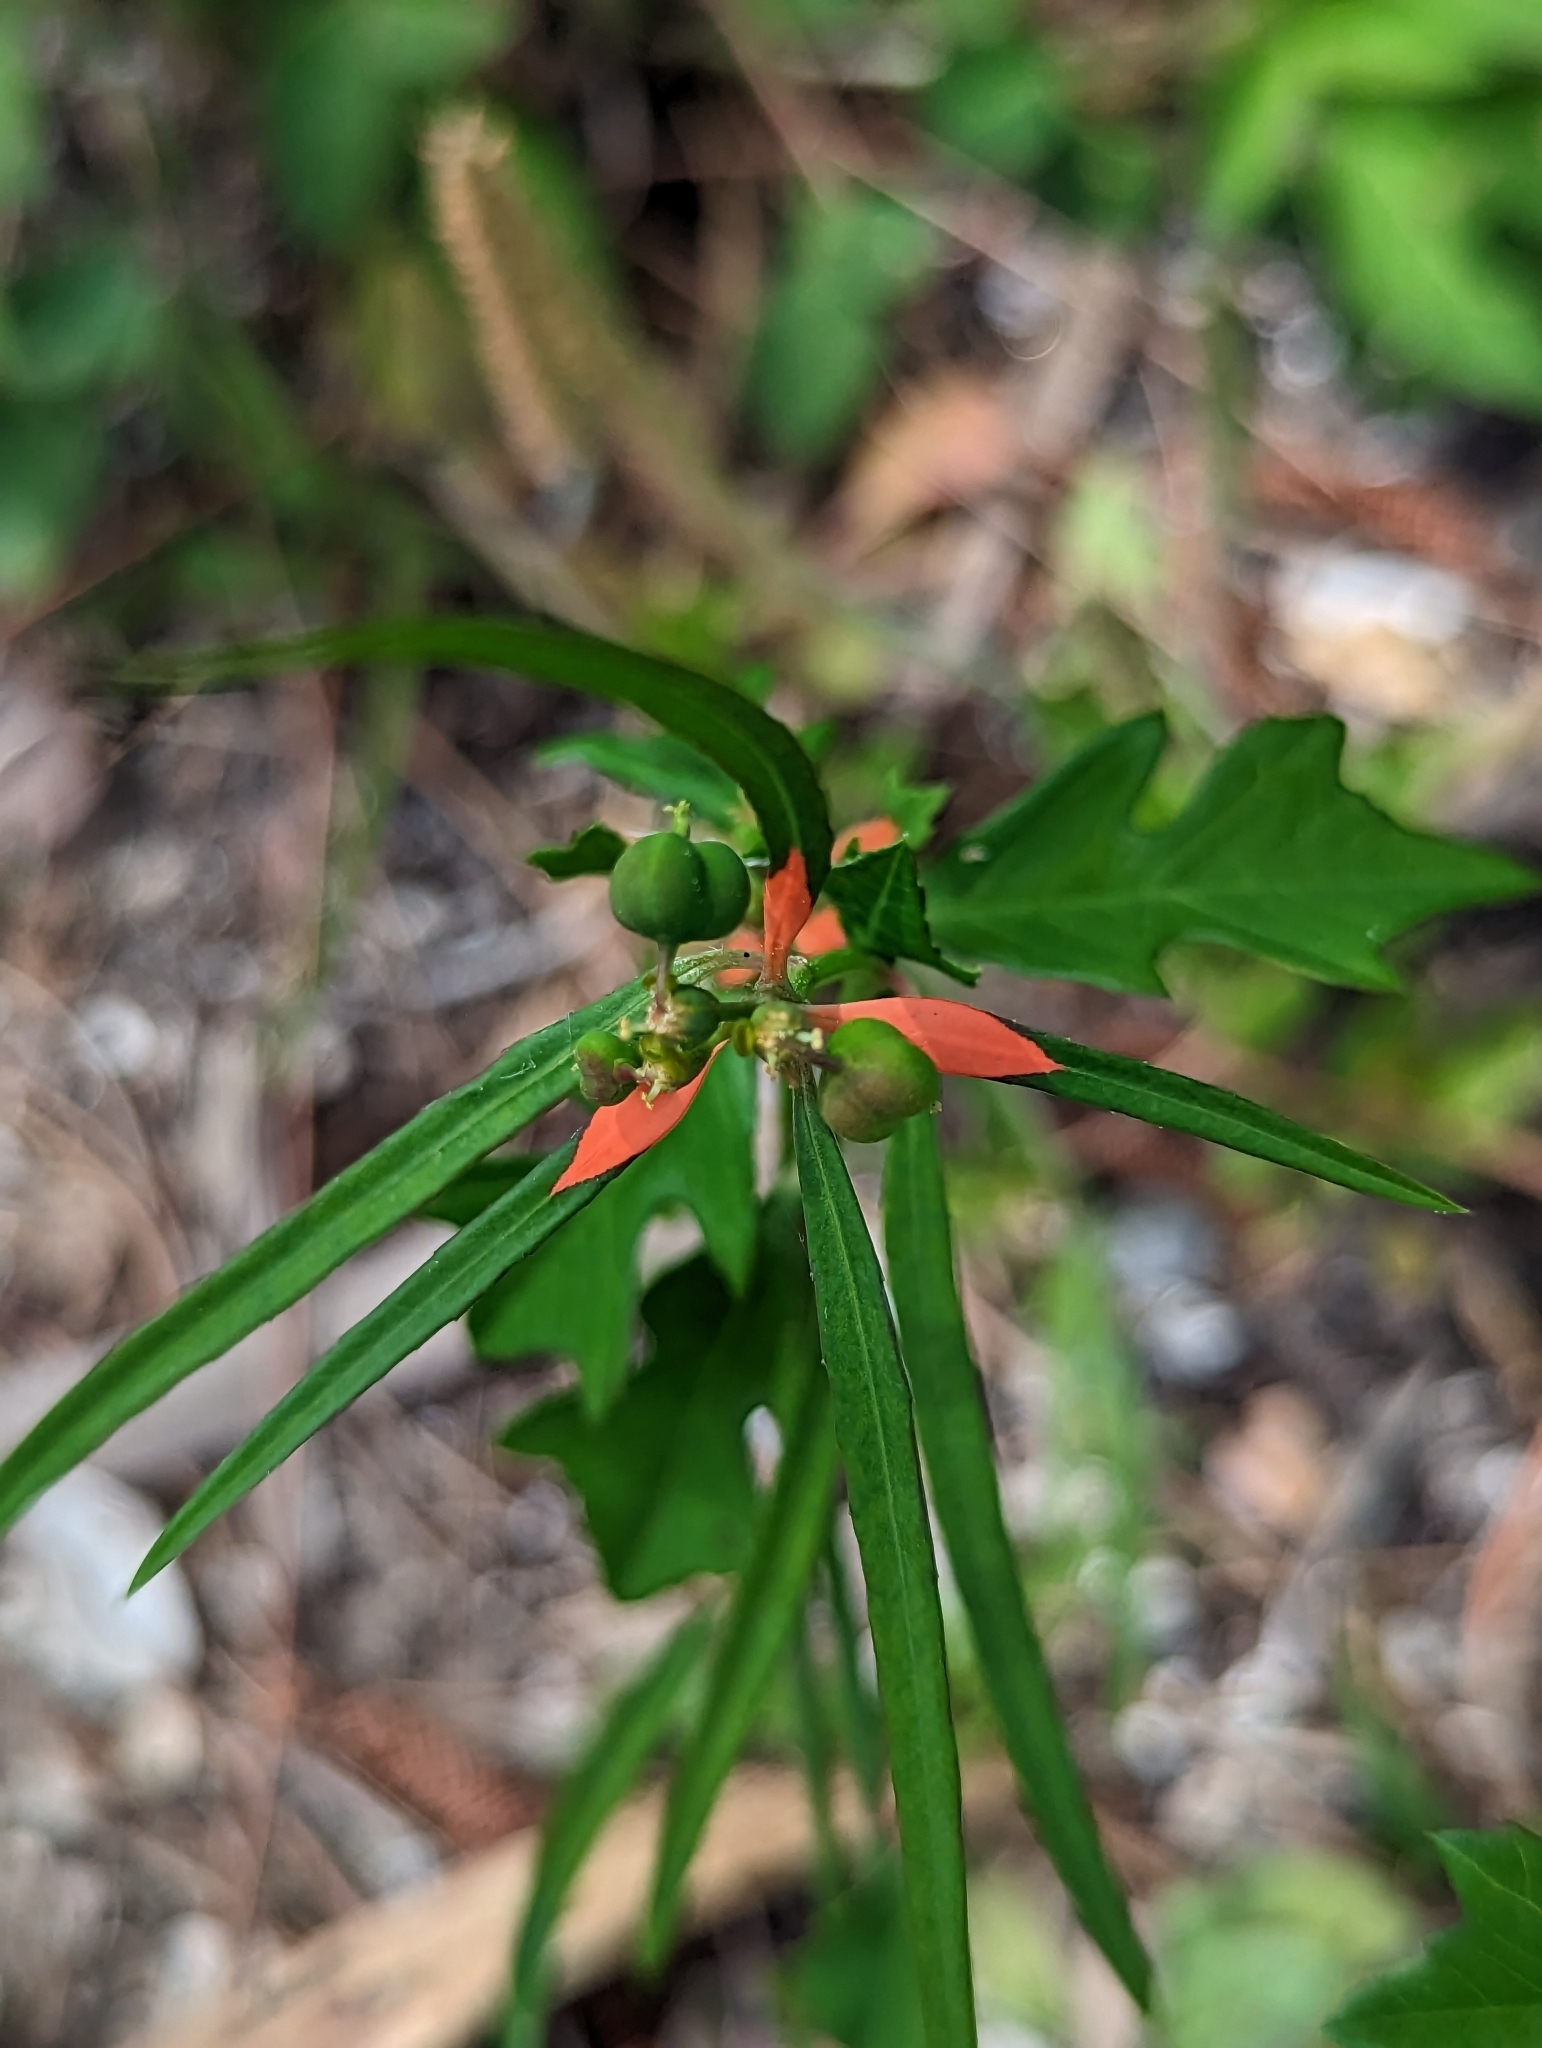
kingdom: Plantae
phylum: Tracheophyta
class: Magnoliopsida
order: Malpighiales
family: Euphorbiaceae
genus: Euphorbia
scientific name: Euphorbia heterophylla
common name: Mexican fireplant
